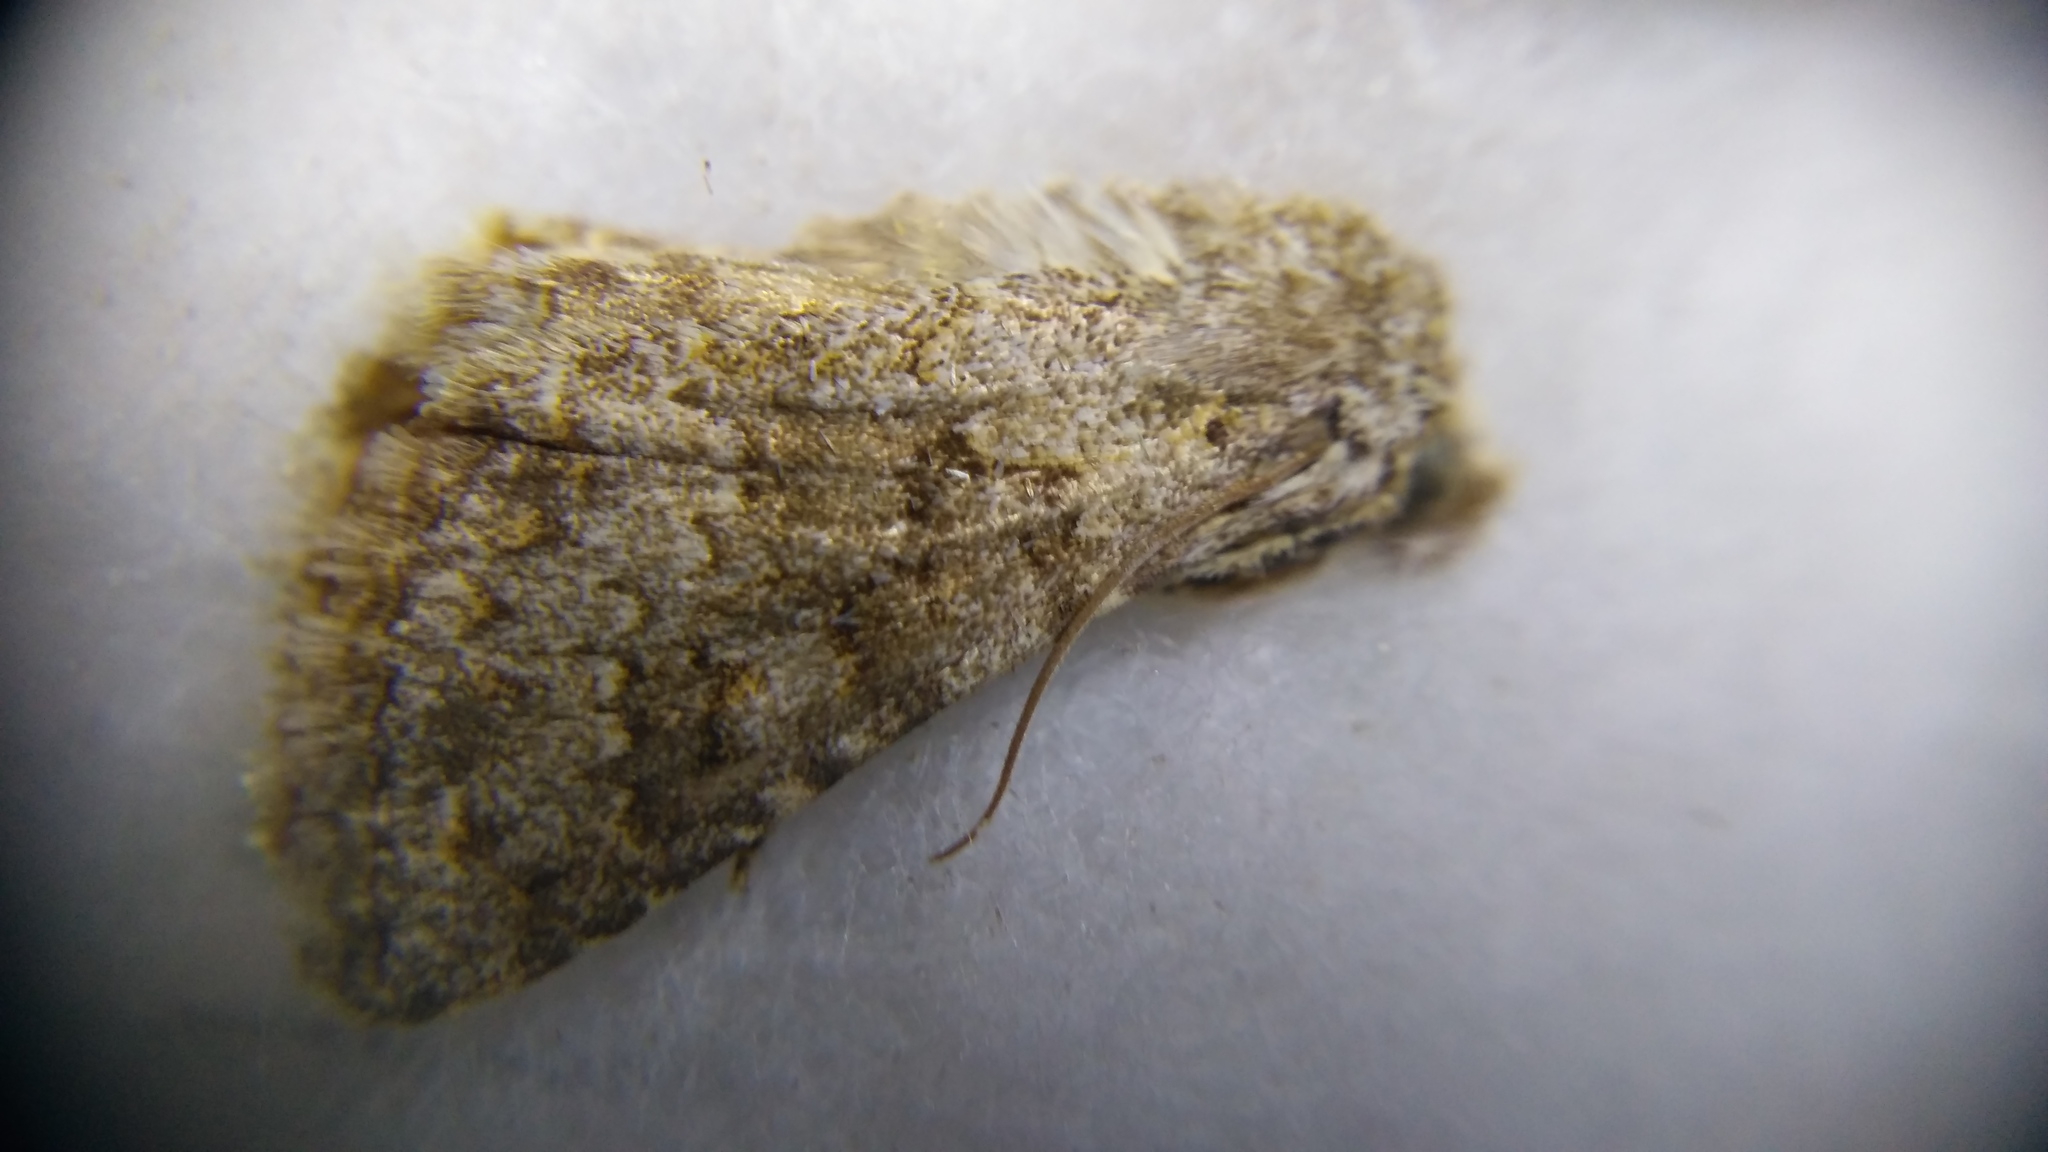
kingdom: Animalia
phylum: Arthropoda
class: Insecta
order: Lepidoptera
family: Noctuidae
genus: Hecatera
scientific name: Hecatera dysodea
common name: Small ranunculus
